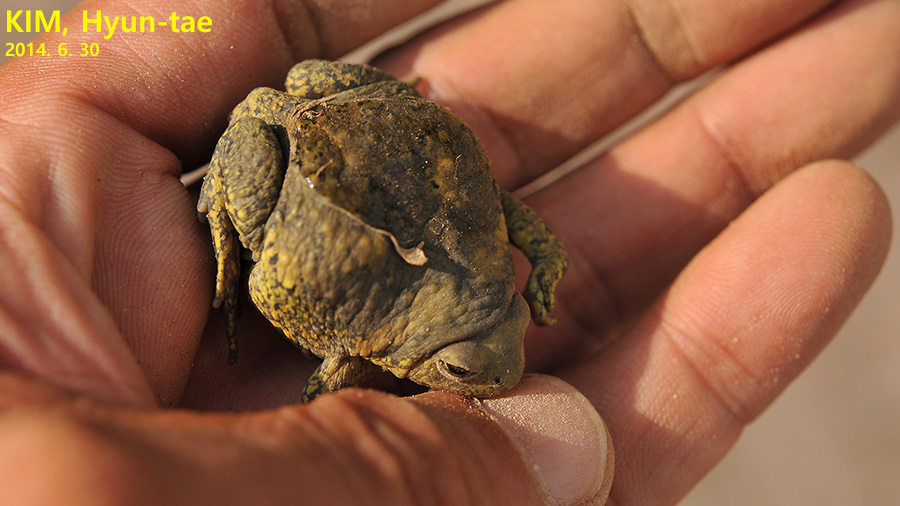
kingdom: Animalia
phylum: Chordata
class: Amphibia
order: Anura
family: Microhylidae
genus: Kaloula
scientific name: Kaloula borealis
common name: Boreal digging frog
